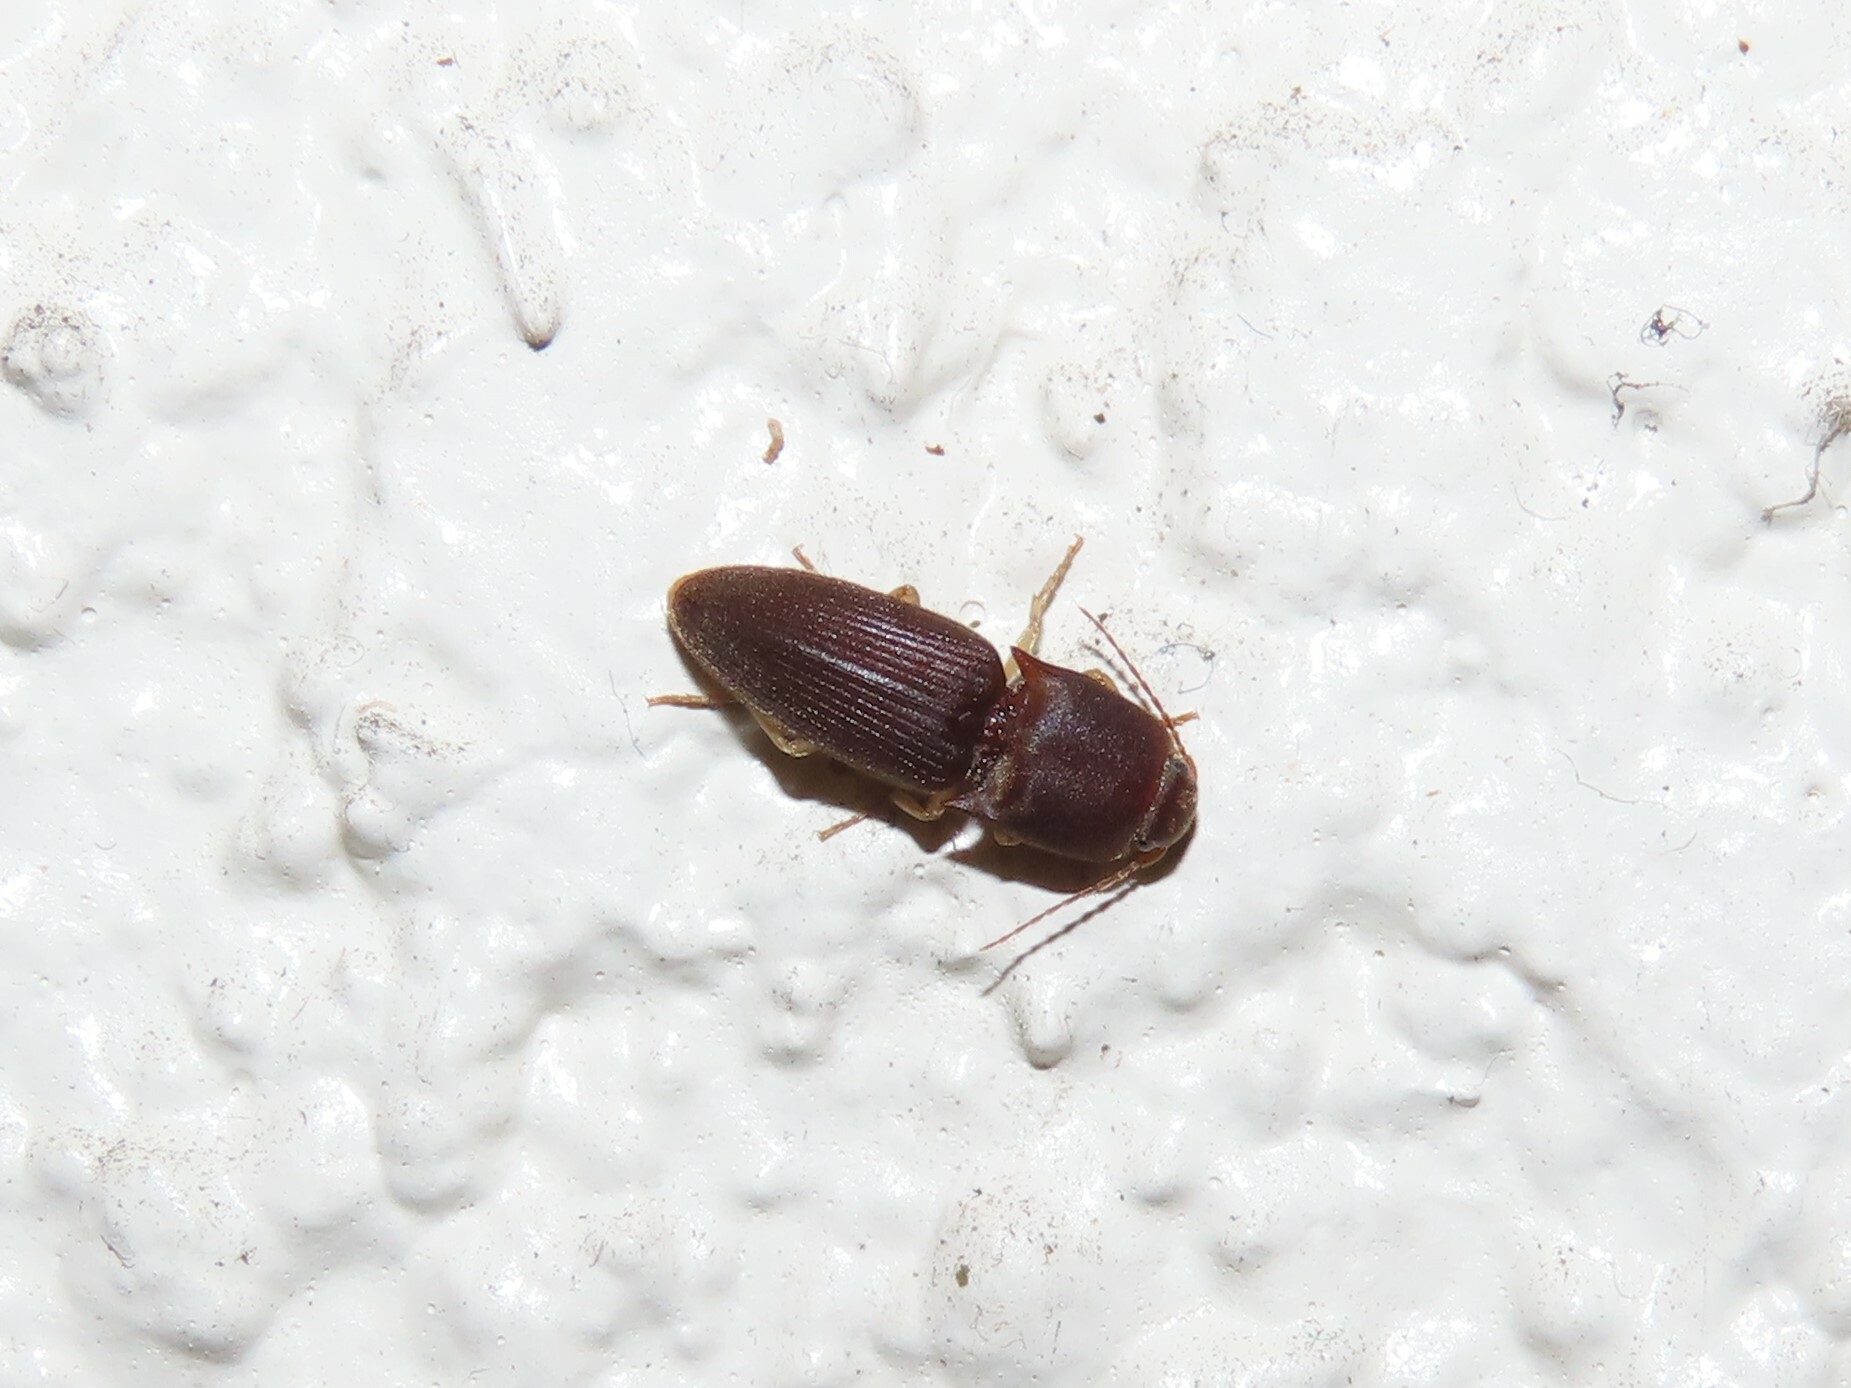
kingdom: Animalia
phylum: Arthropoda
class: Insecta
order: Coleoptera
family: Elateridae
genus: Heteroderes
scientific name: Heteroderes amplicollis
